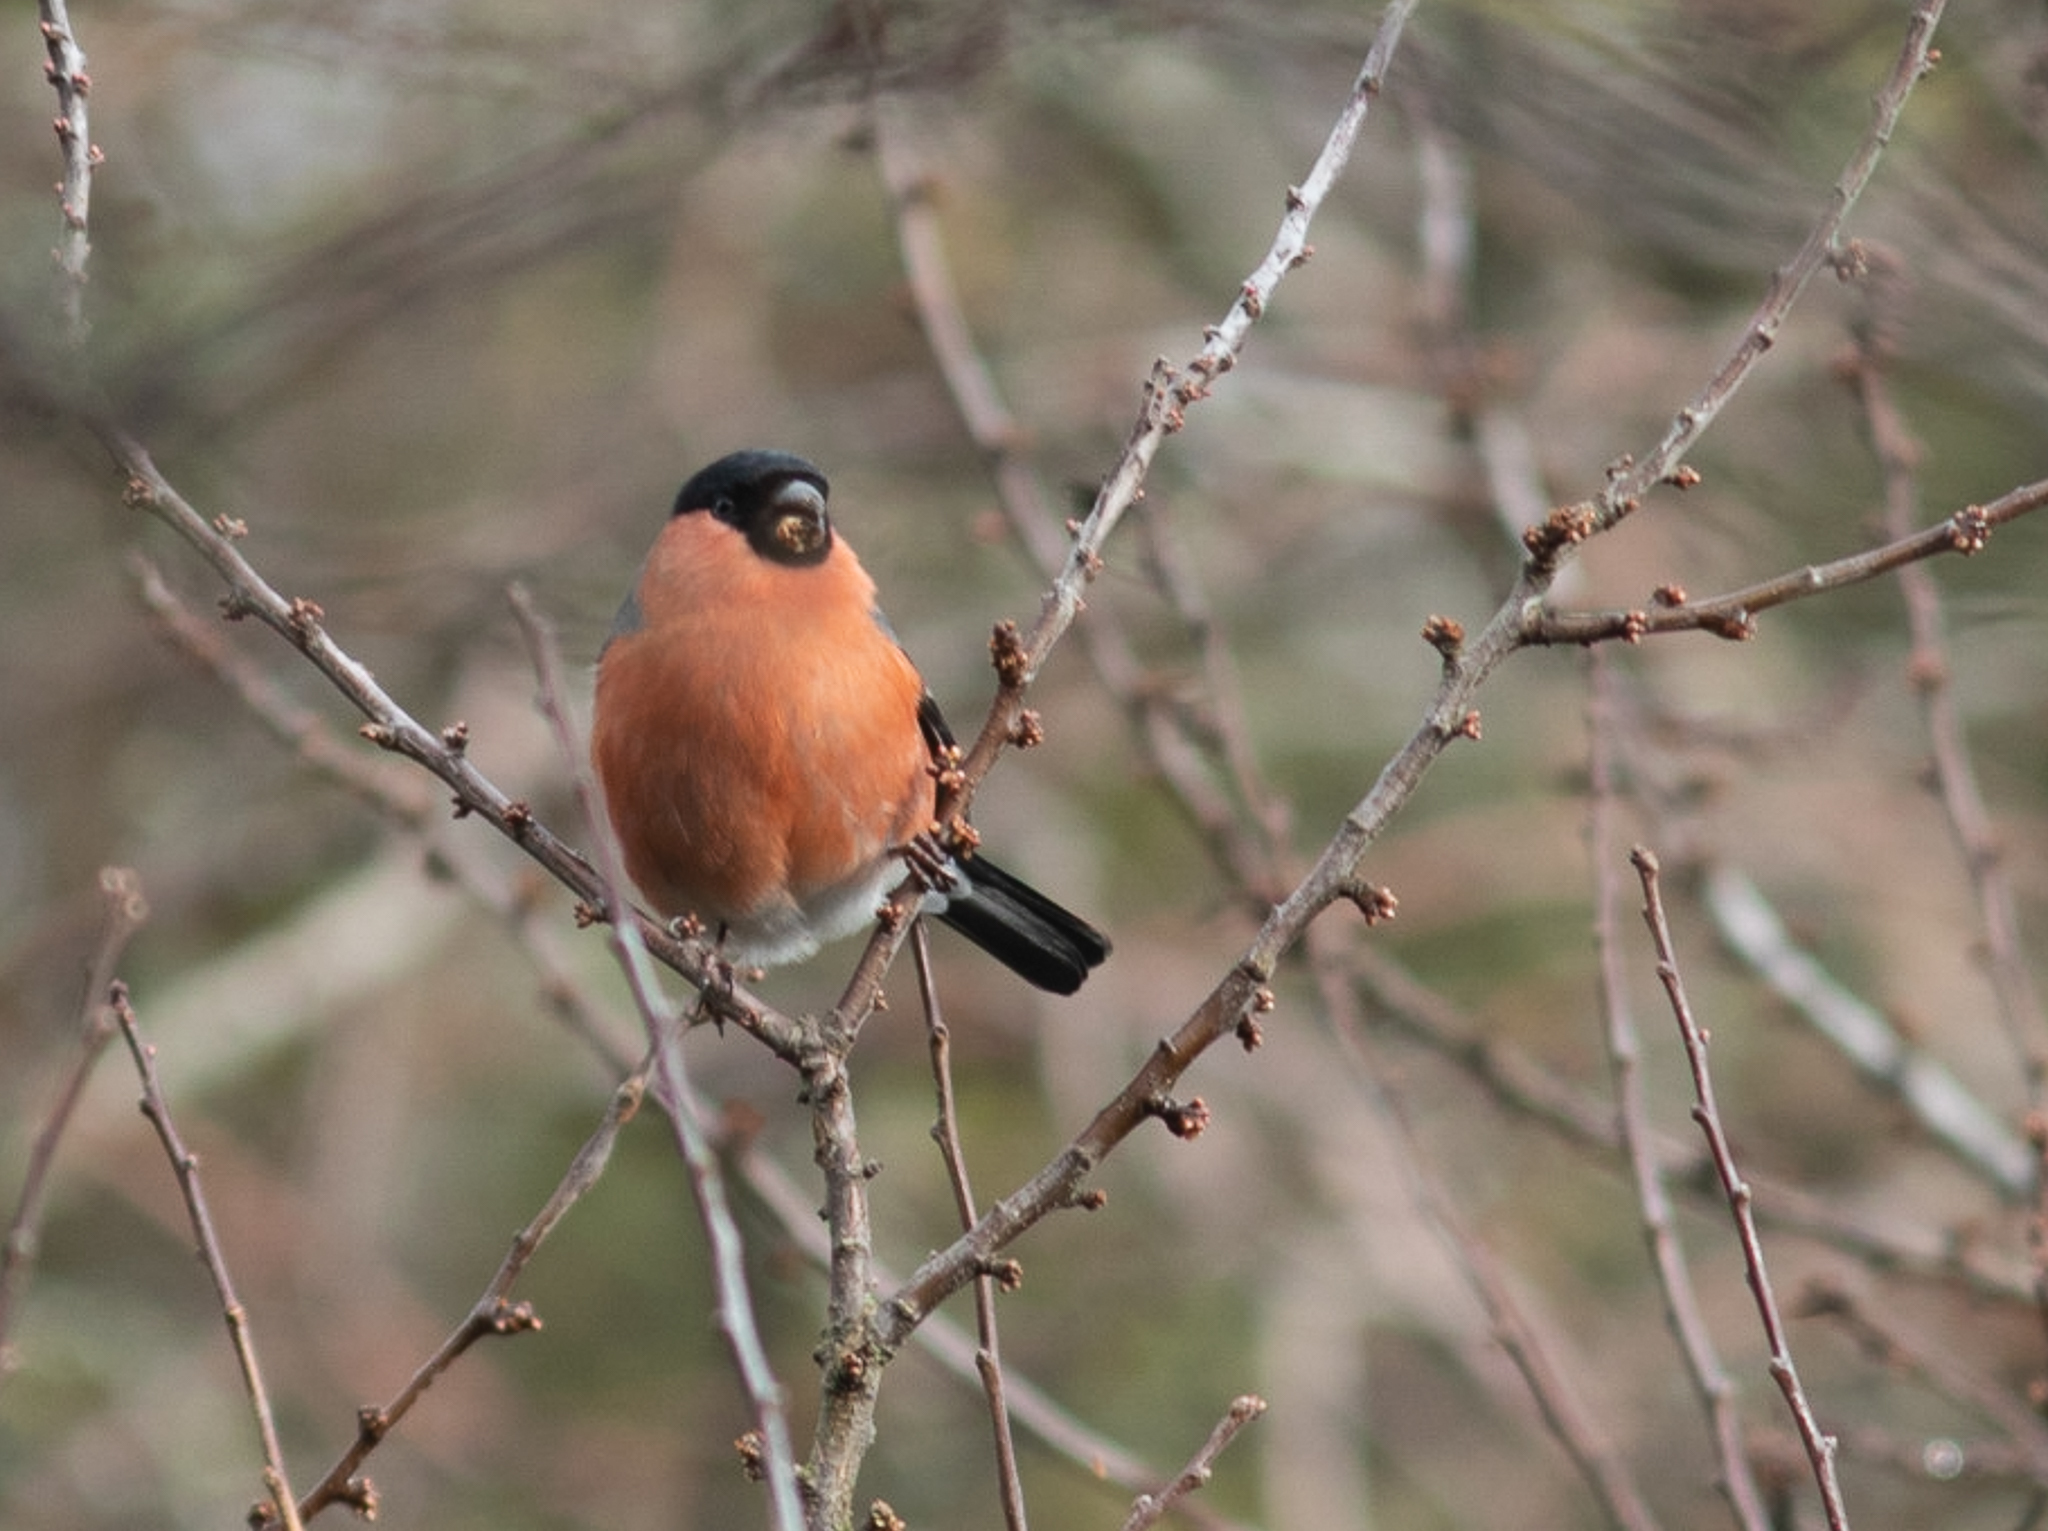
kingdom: Animalia
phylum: Chordata
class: Aves
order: Passeriformes
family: Fringillidae
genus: Pyrrhula
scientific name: Pyrrhula pyrrhula
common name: Eurasian bullfinch
